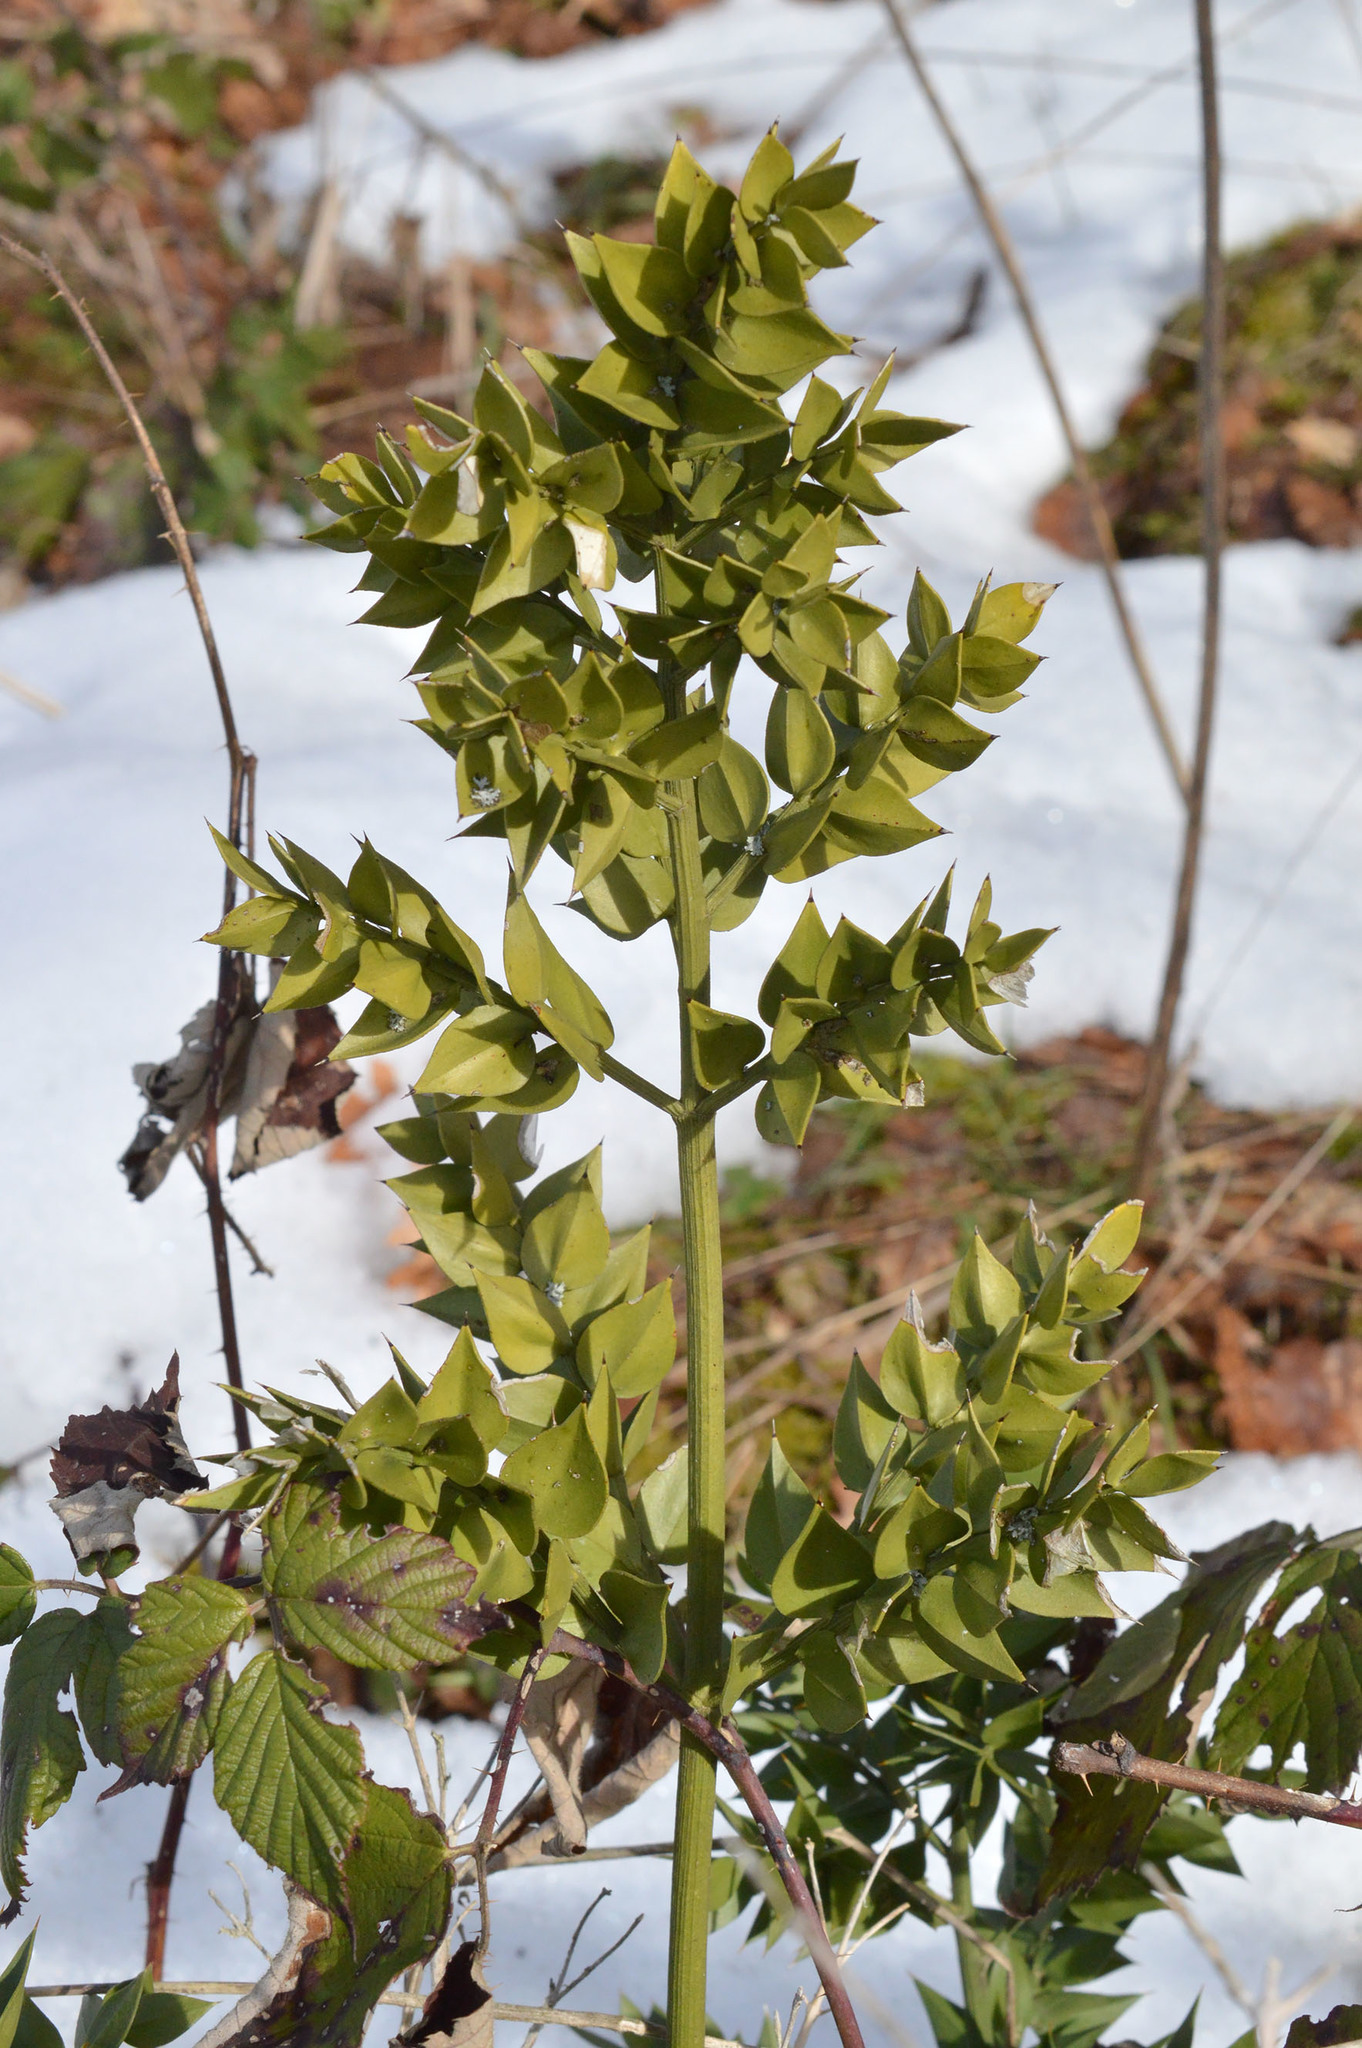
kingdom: Plantae
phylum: Tracheophyta
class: Liliopsida
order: Asparagales
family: Asparagaceae
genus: Ruscus
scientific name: Ruscus aculeatus
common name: Butcher's-broom
